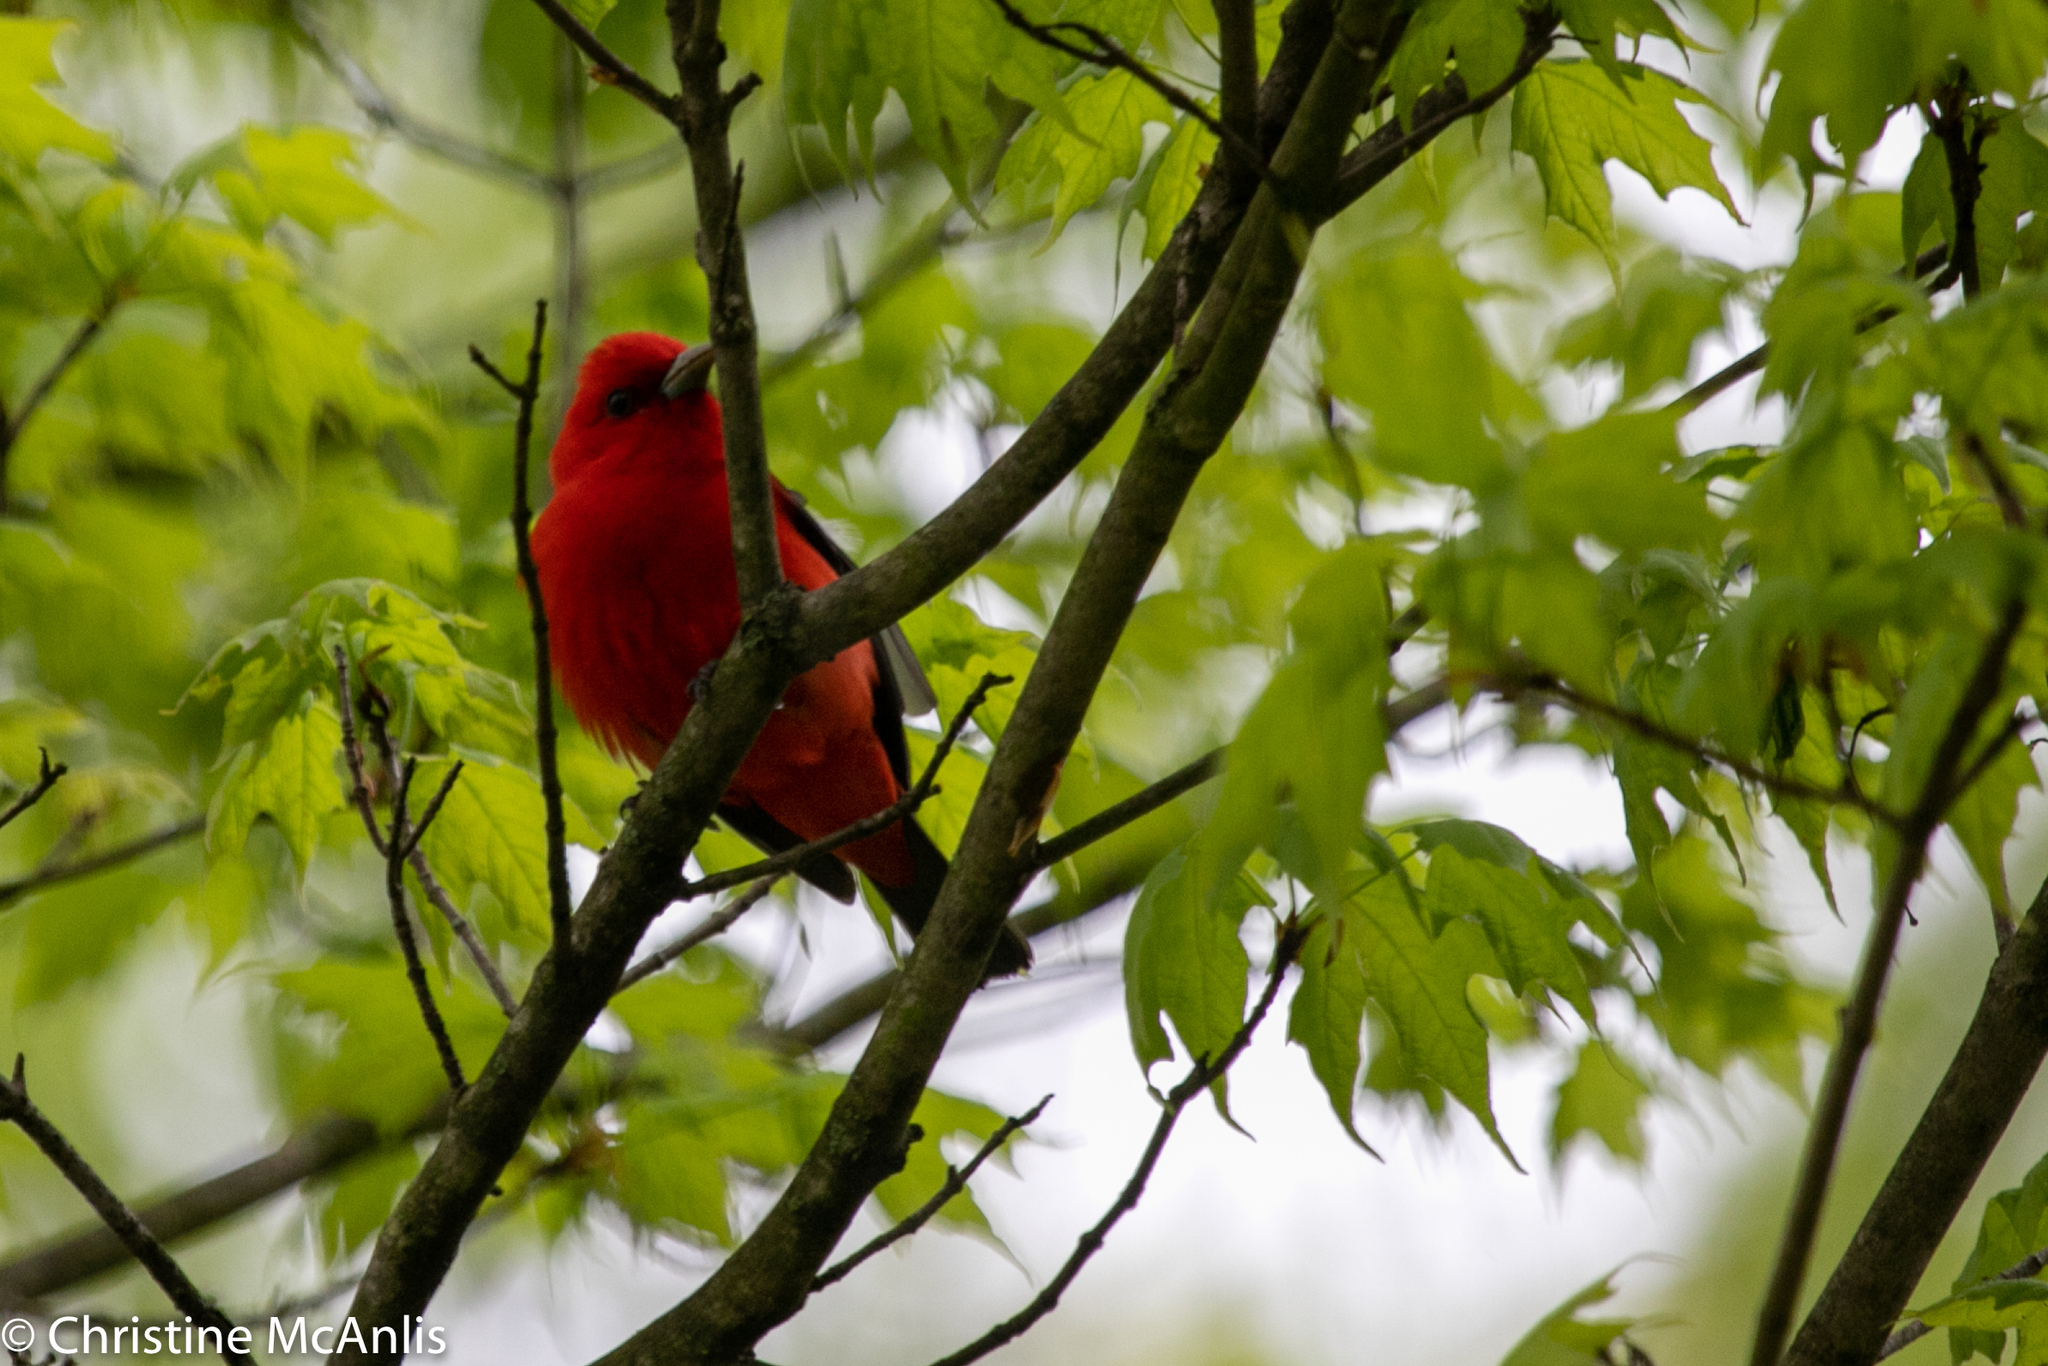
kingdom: Animalia
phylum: Chordata
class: Aves
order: Passeriformes
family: Cardinalidae
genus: Piranga
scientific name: Piranga olivacea
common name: Scarlet tanager
